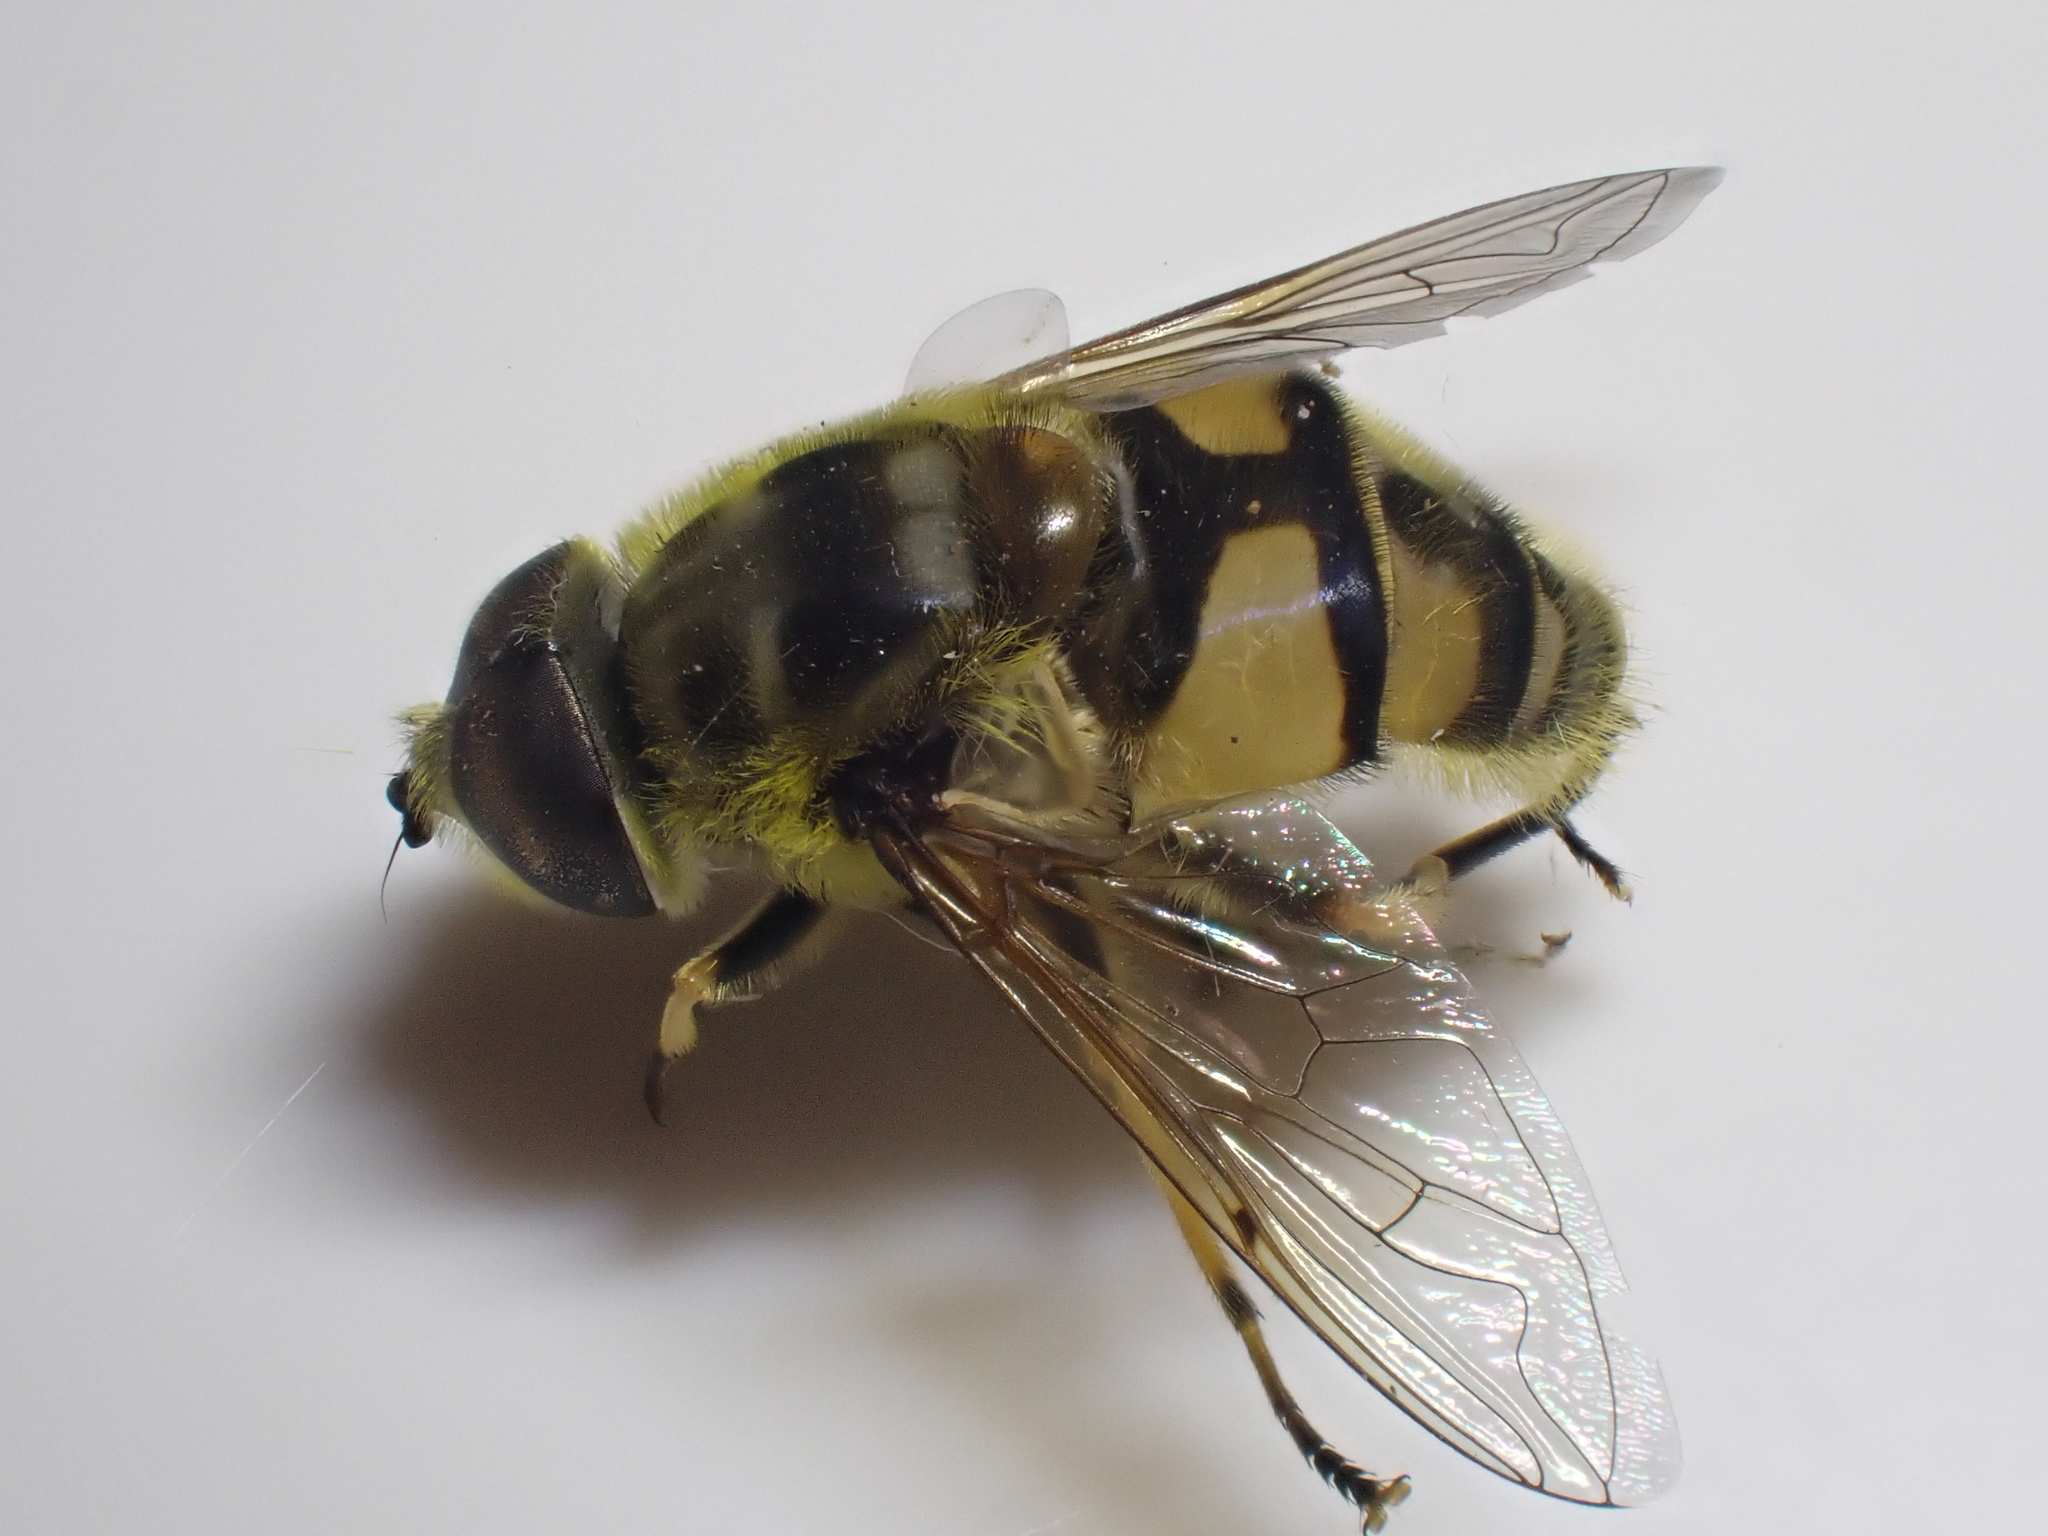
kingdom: Animalia
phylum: Arthropoda
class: Insecta
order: Diptera
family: Syrphidae
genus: Myathropa
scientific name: Myathropa florea
